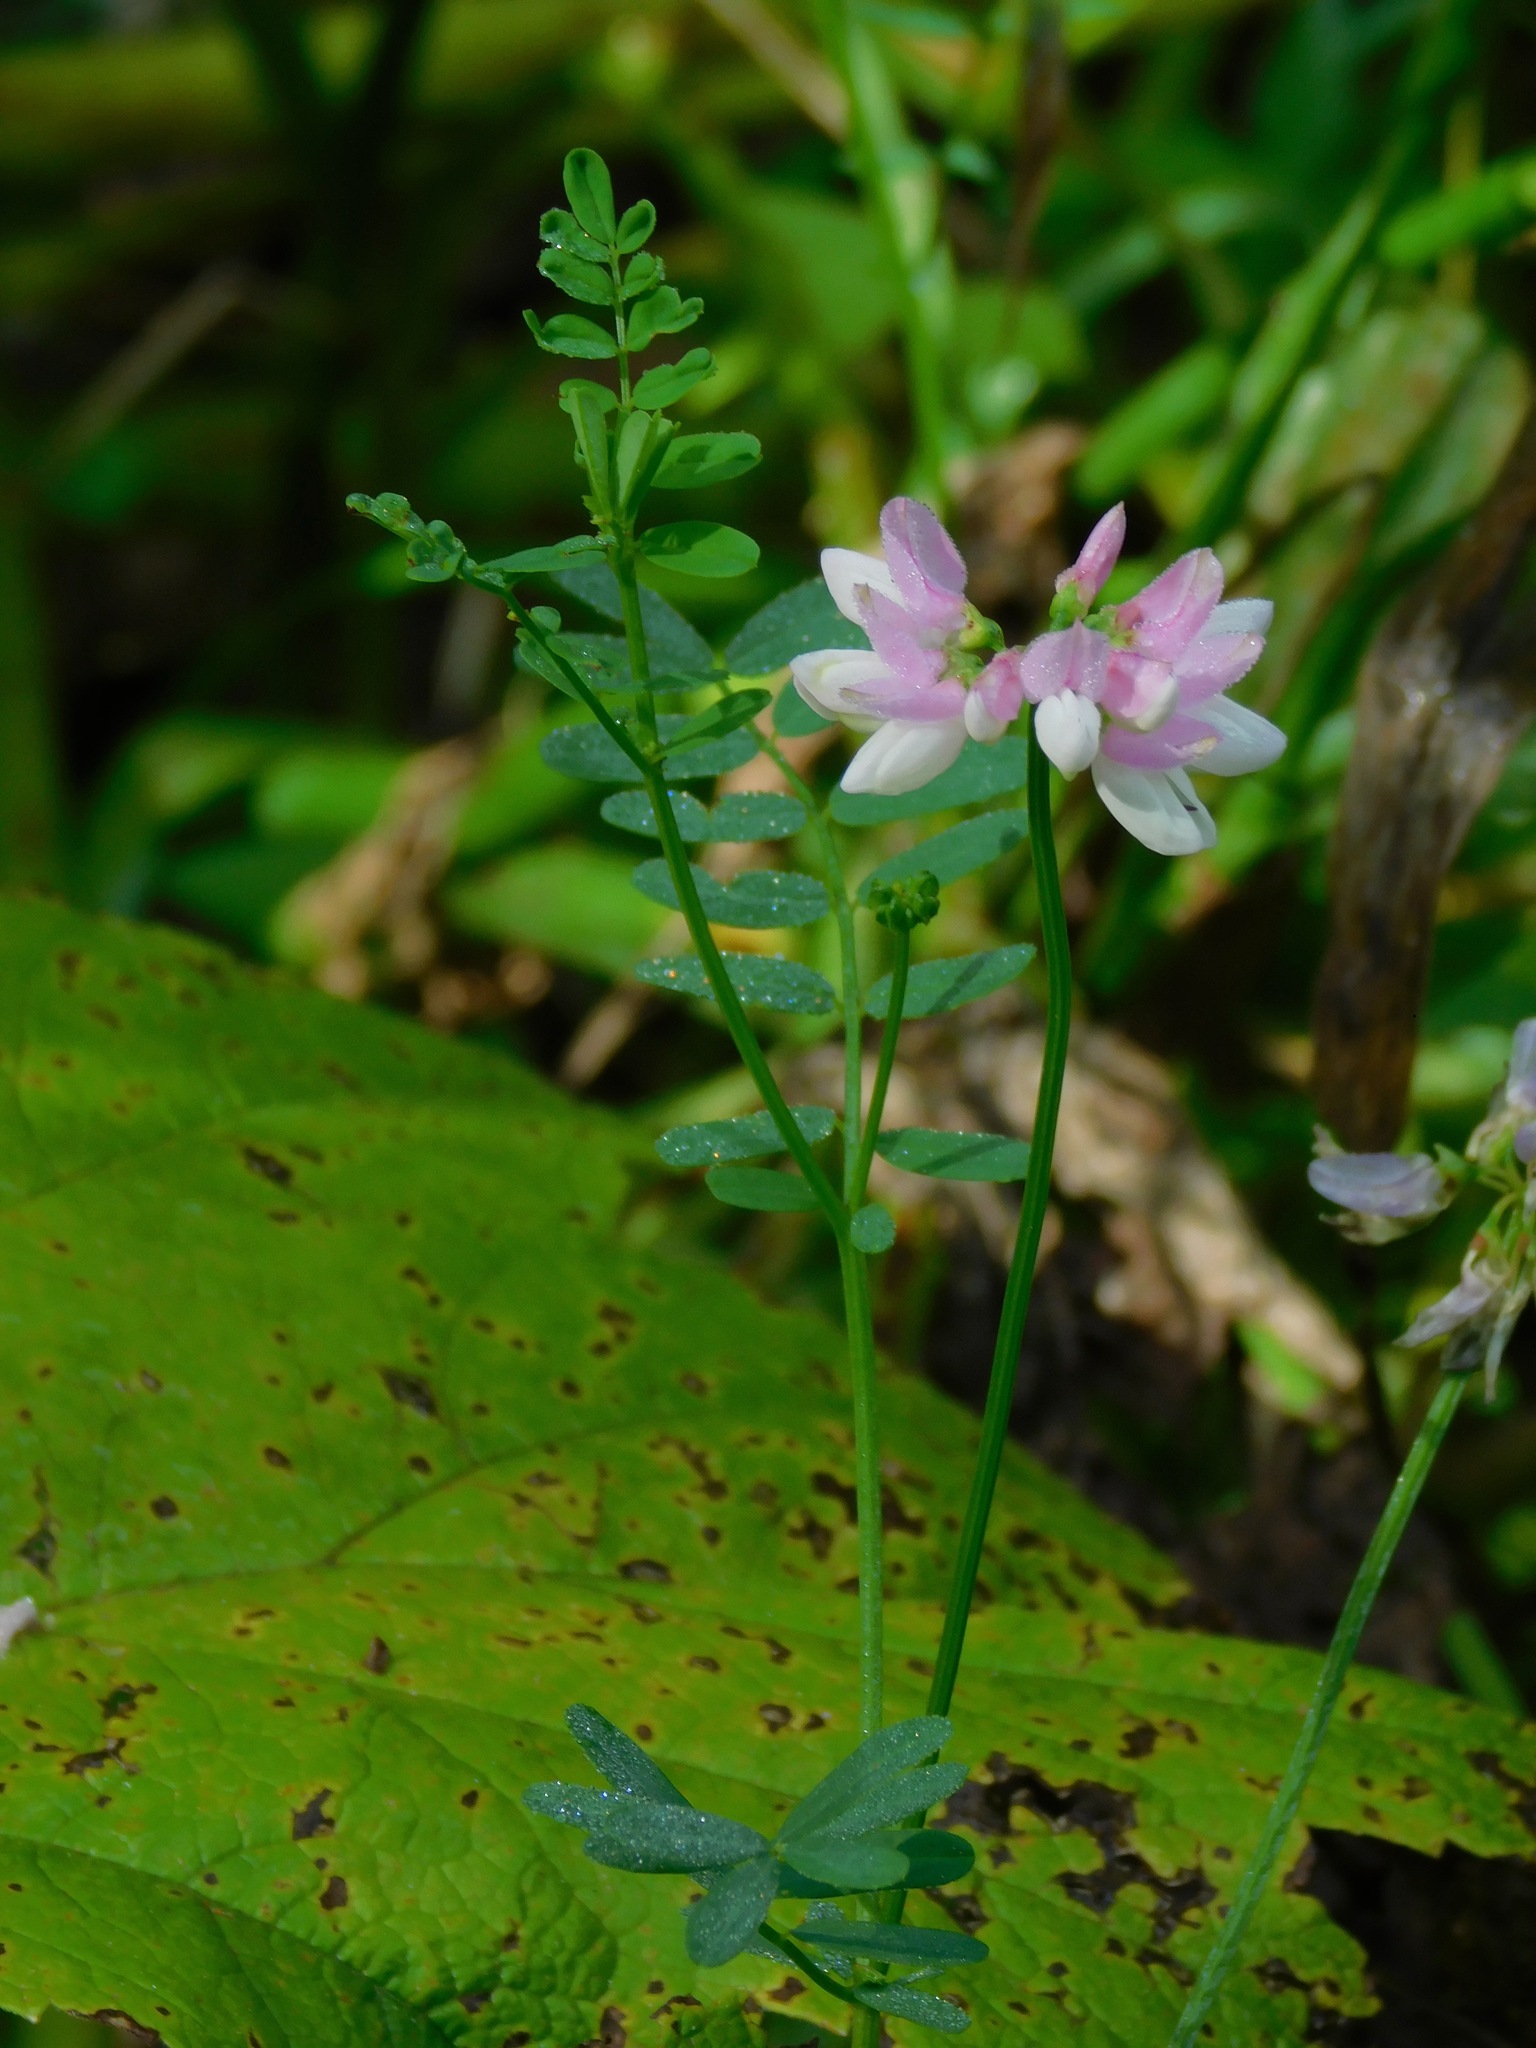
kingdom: Plantae
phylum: Tracheophyta
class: Magnoliopsida
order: Fabales
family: Fabaceae
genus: Coronilla
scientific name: Coronilla varia
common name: Crownvetch
